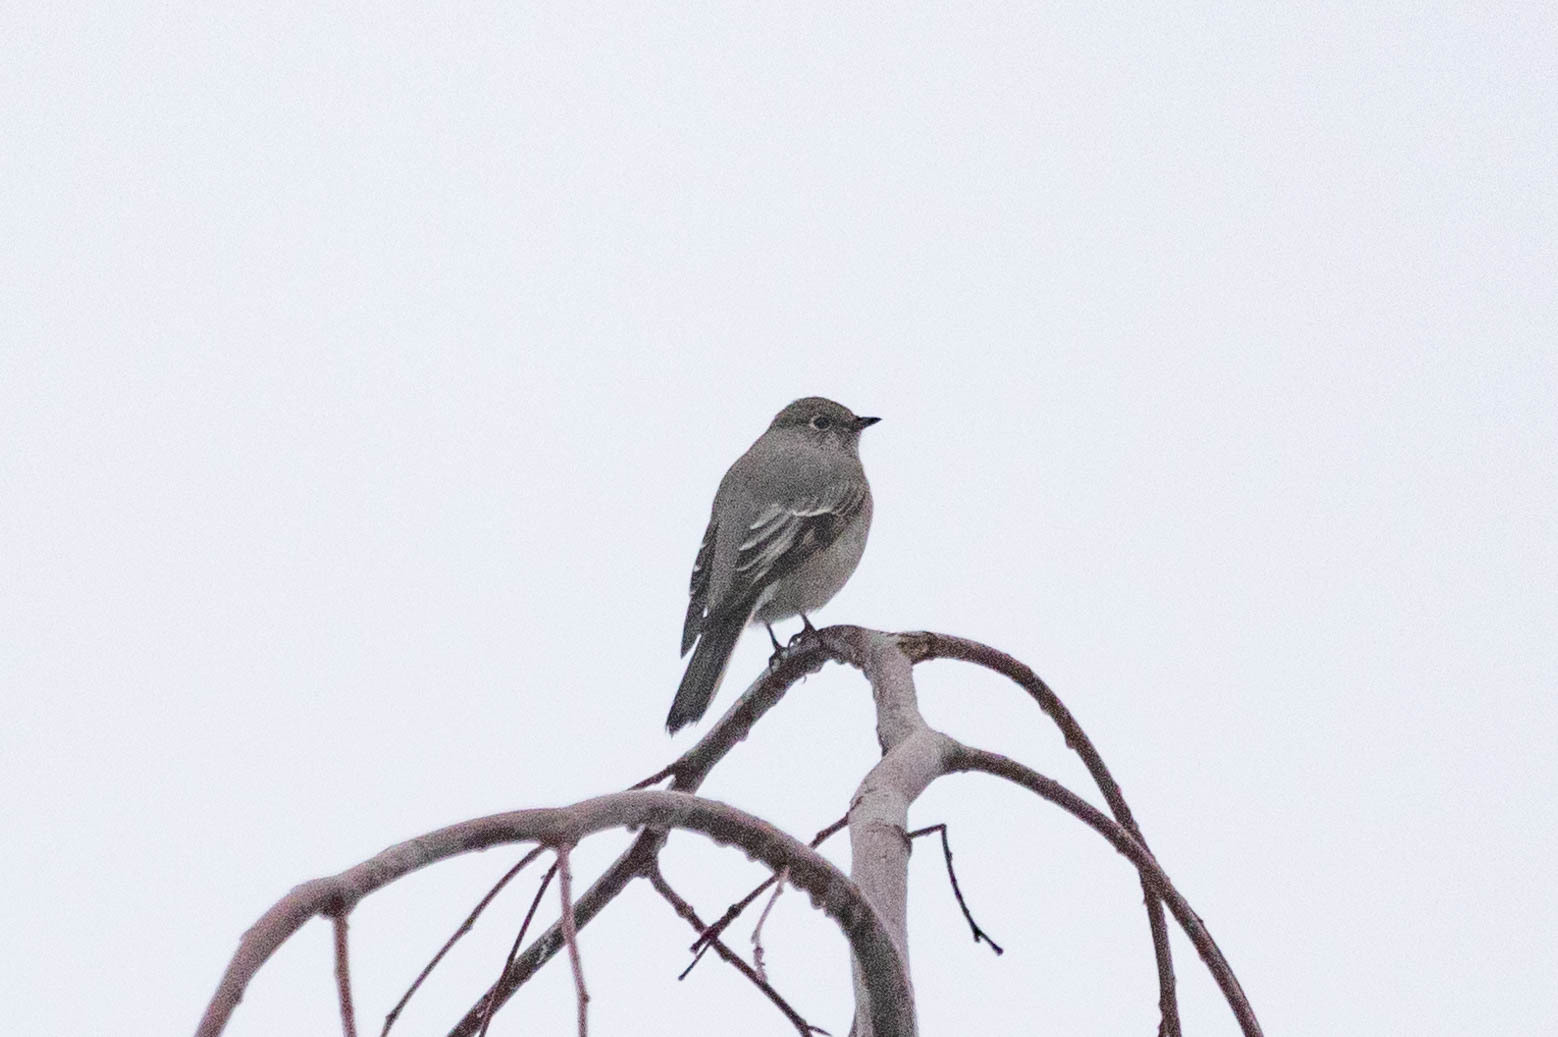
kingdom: Animalia
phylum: Chordata
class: Aves
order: Passeriformes
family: Turdidae
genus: Myadestes
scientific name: Myadestes townsendi
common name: Townsend's solitaire
